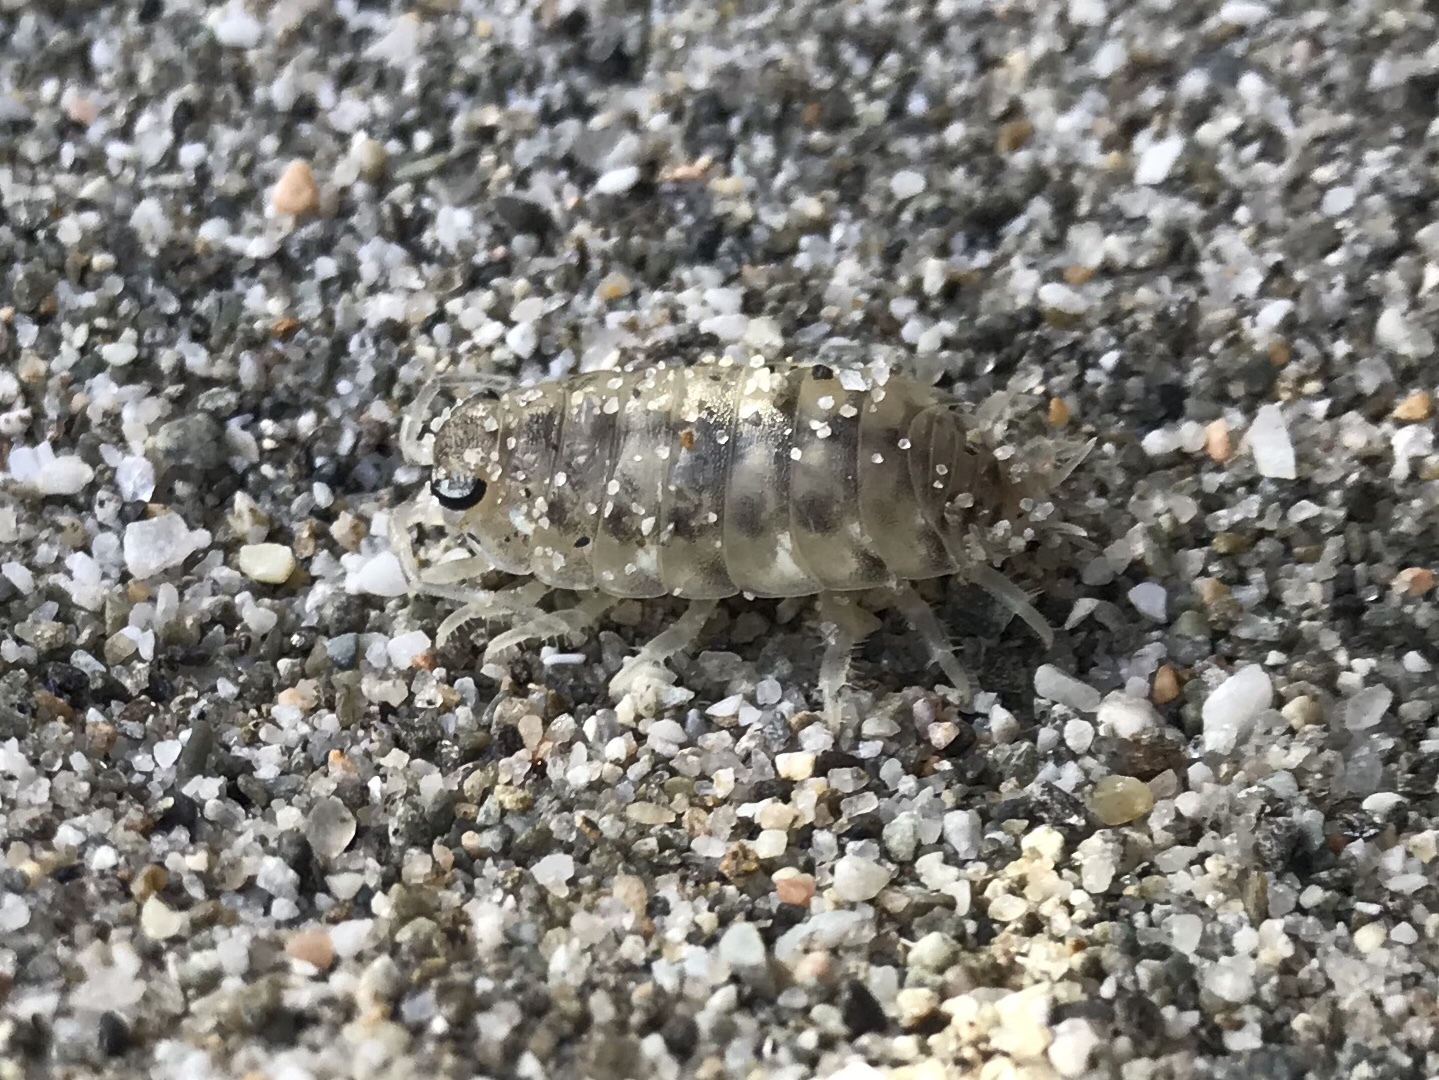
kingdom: Animalia
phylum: Arthropoda
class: Malacostraca
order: Isopoda
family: Scyphacidae
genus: Scyphax
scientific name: Scyphax ornatus
